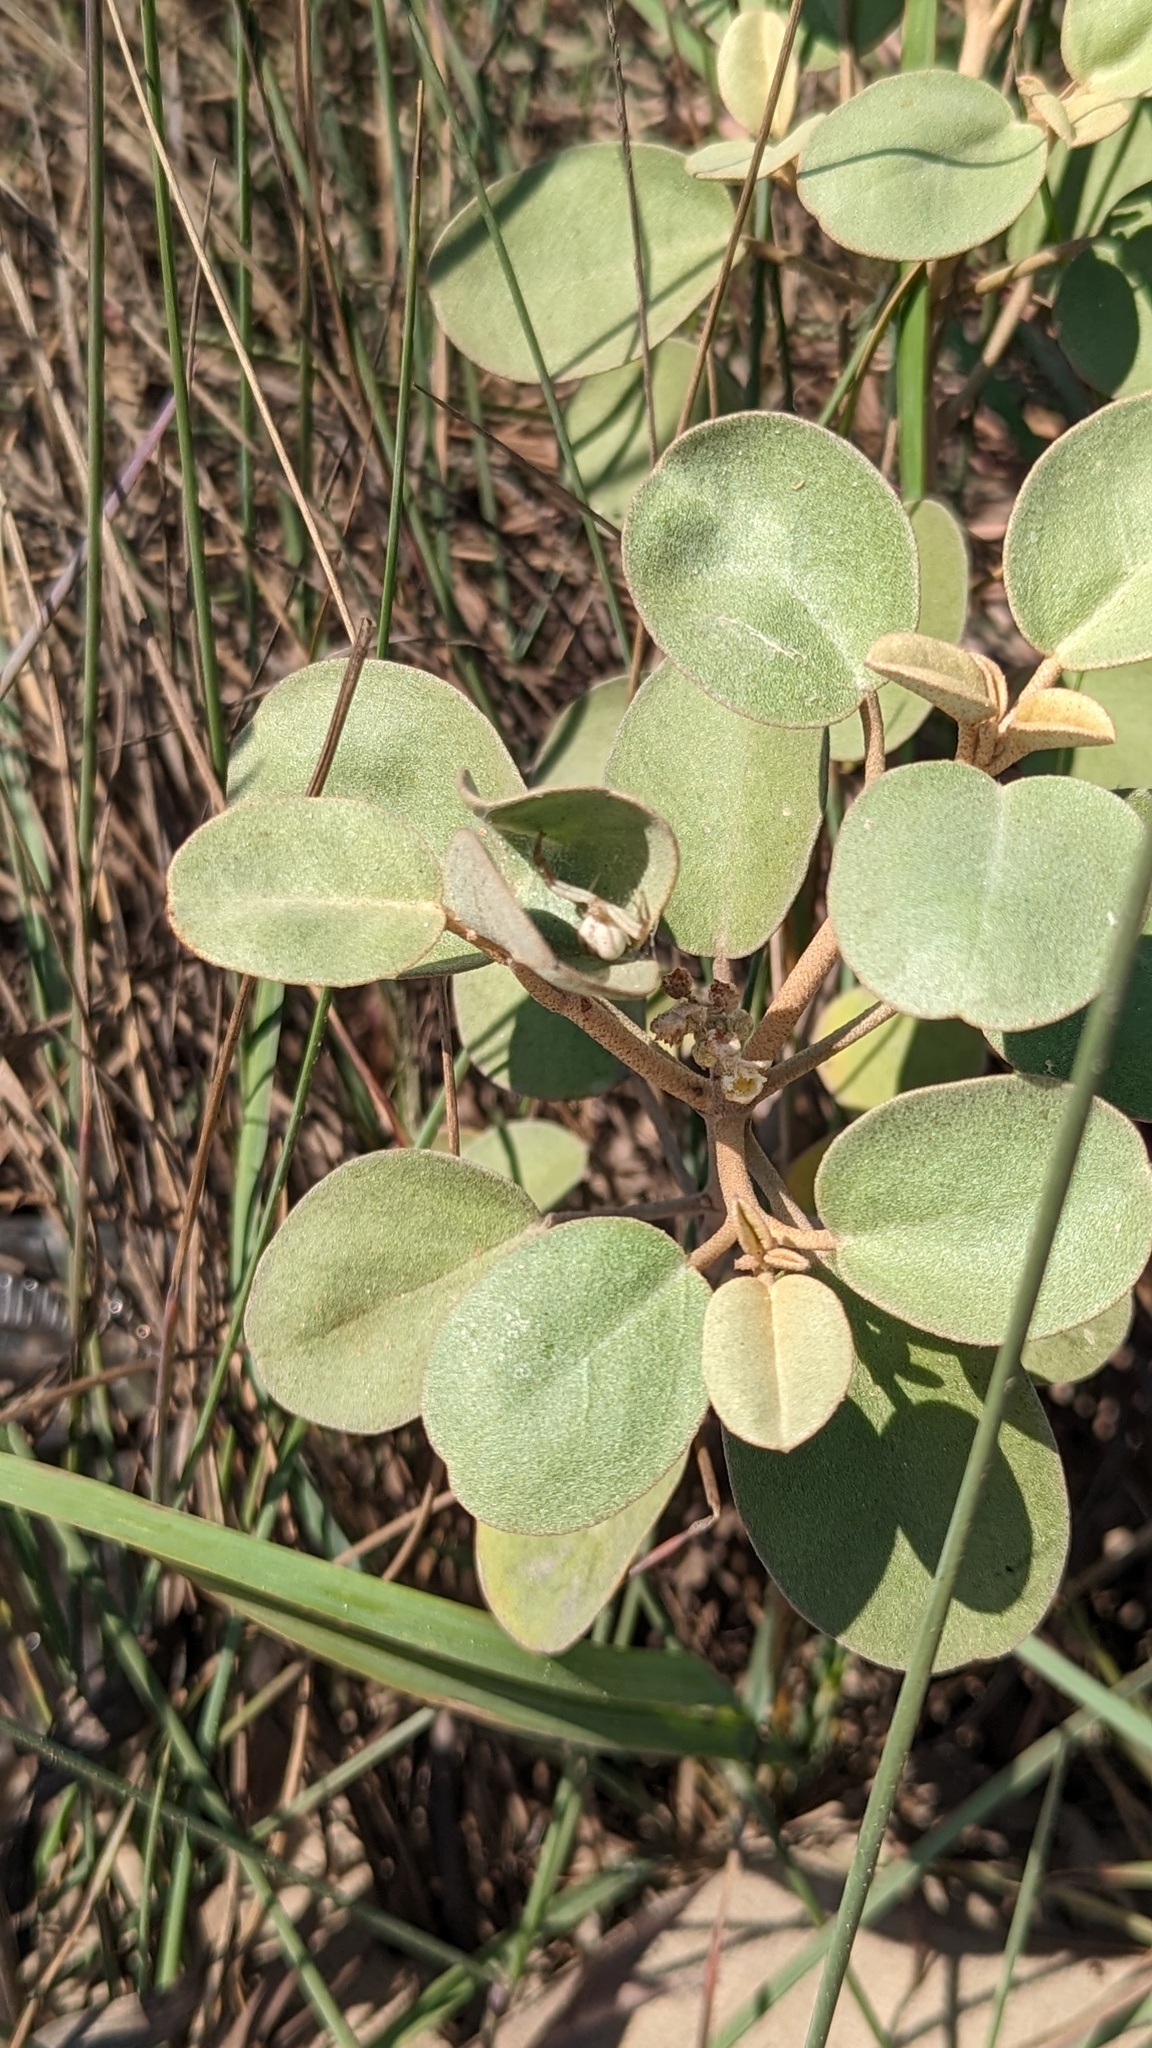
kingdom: Plantae
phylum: Tracheophyta
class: Magnoliopsida
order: Malpighiales
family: Euphorbiaceae
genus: Croton
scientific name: Croton punctatus
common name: Beach-tea
